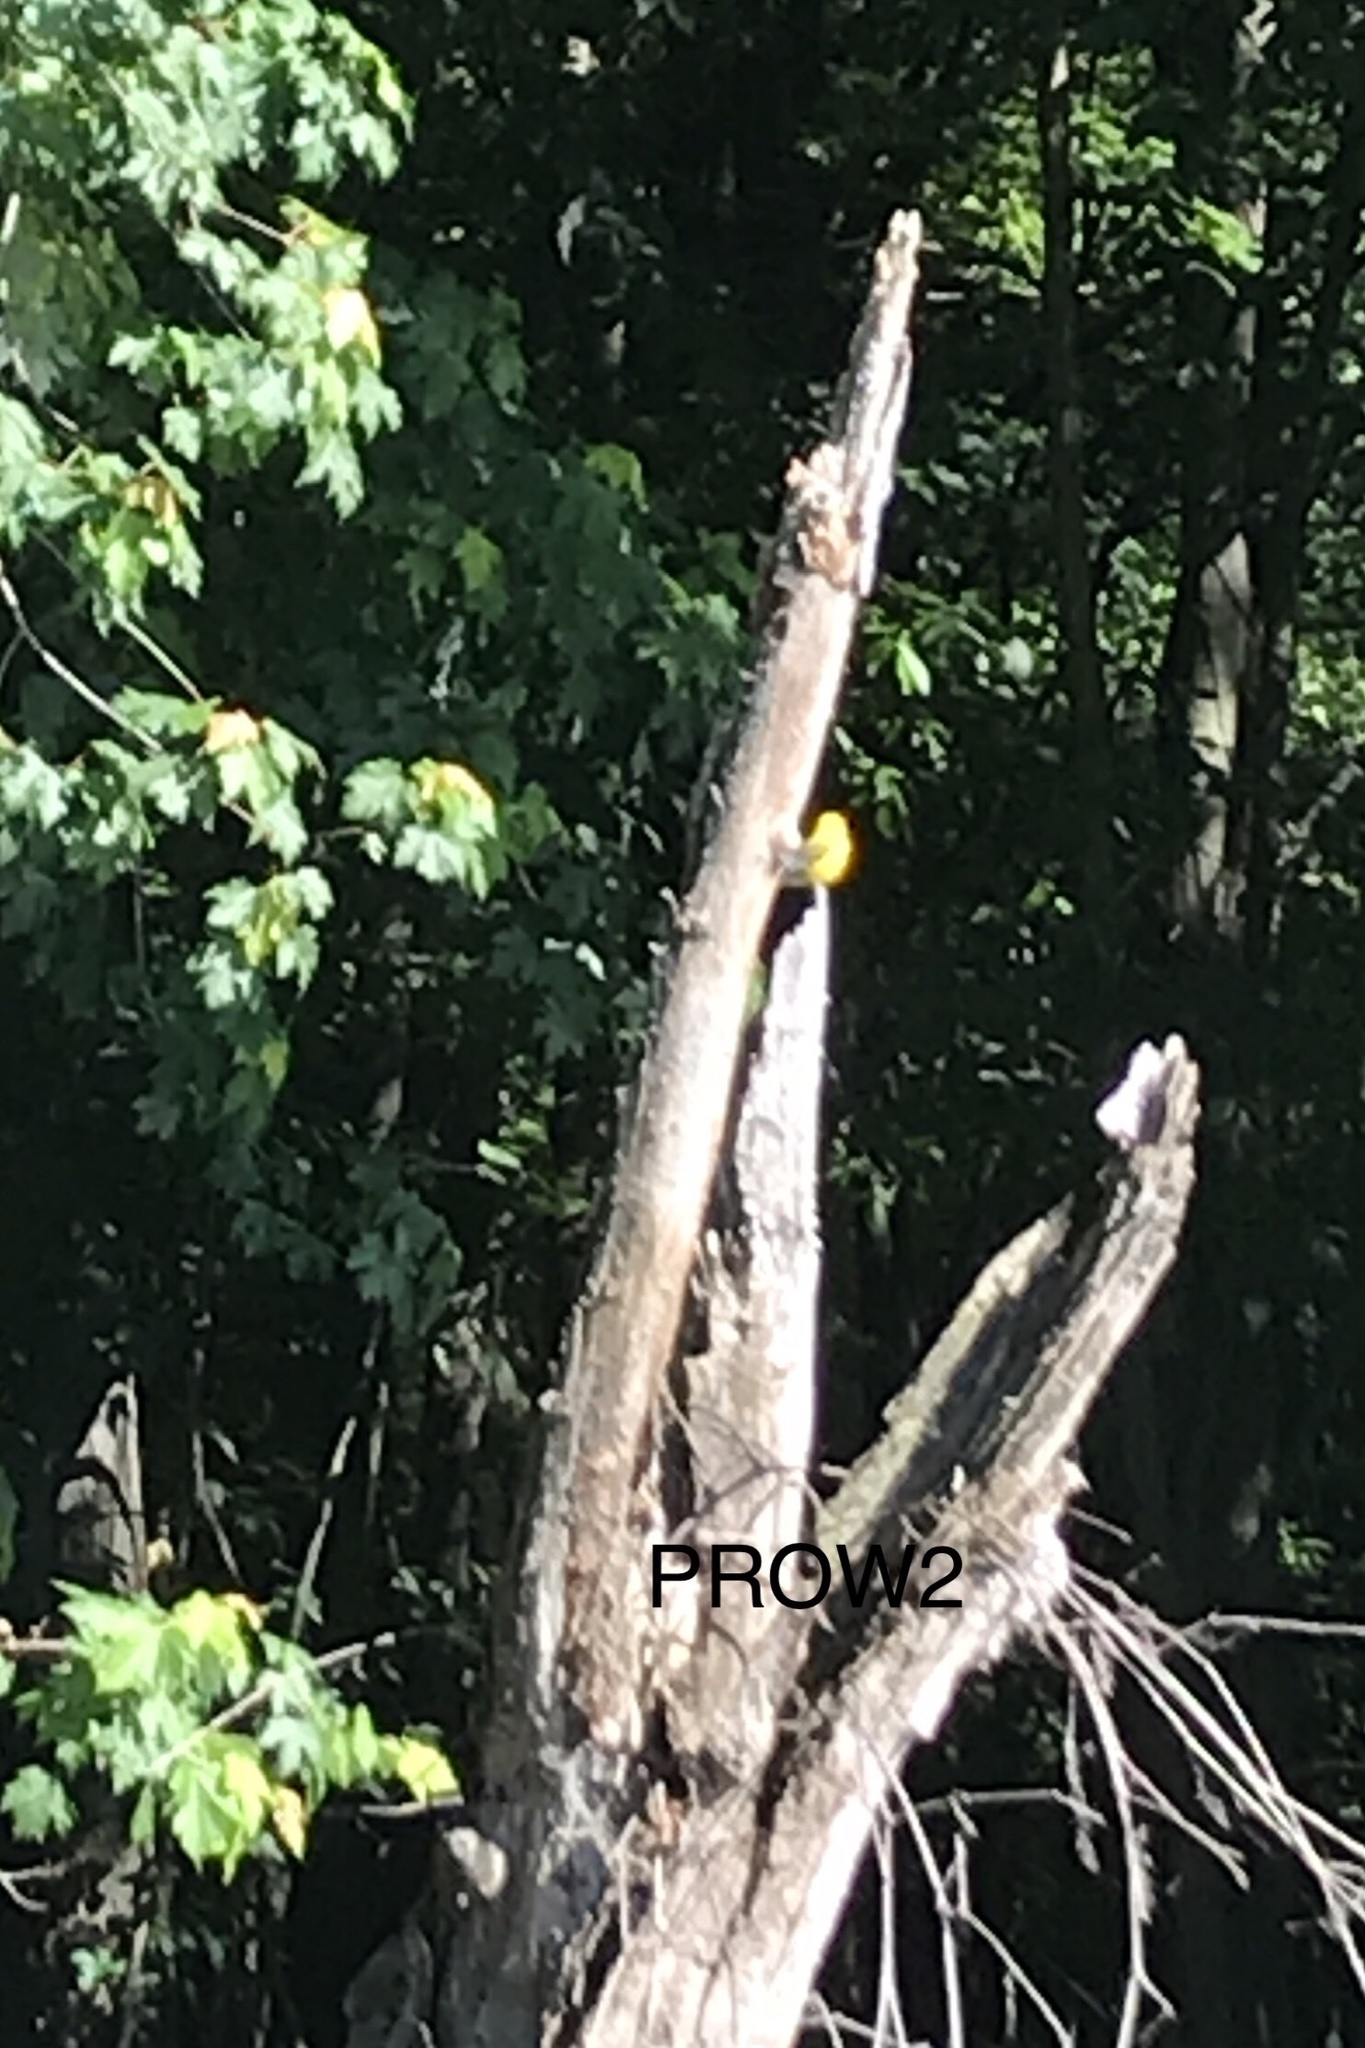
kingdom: Animalia
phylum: Chordata
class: Aves
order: Passeriformes
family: Parulidae
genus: Protonotaria
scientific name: Protonotaria citrea
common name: Prothonotary warbler
